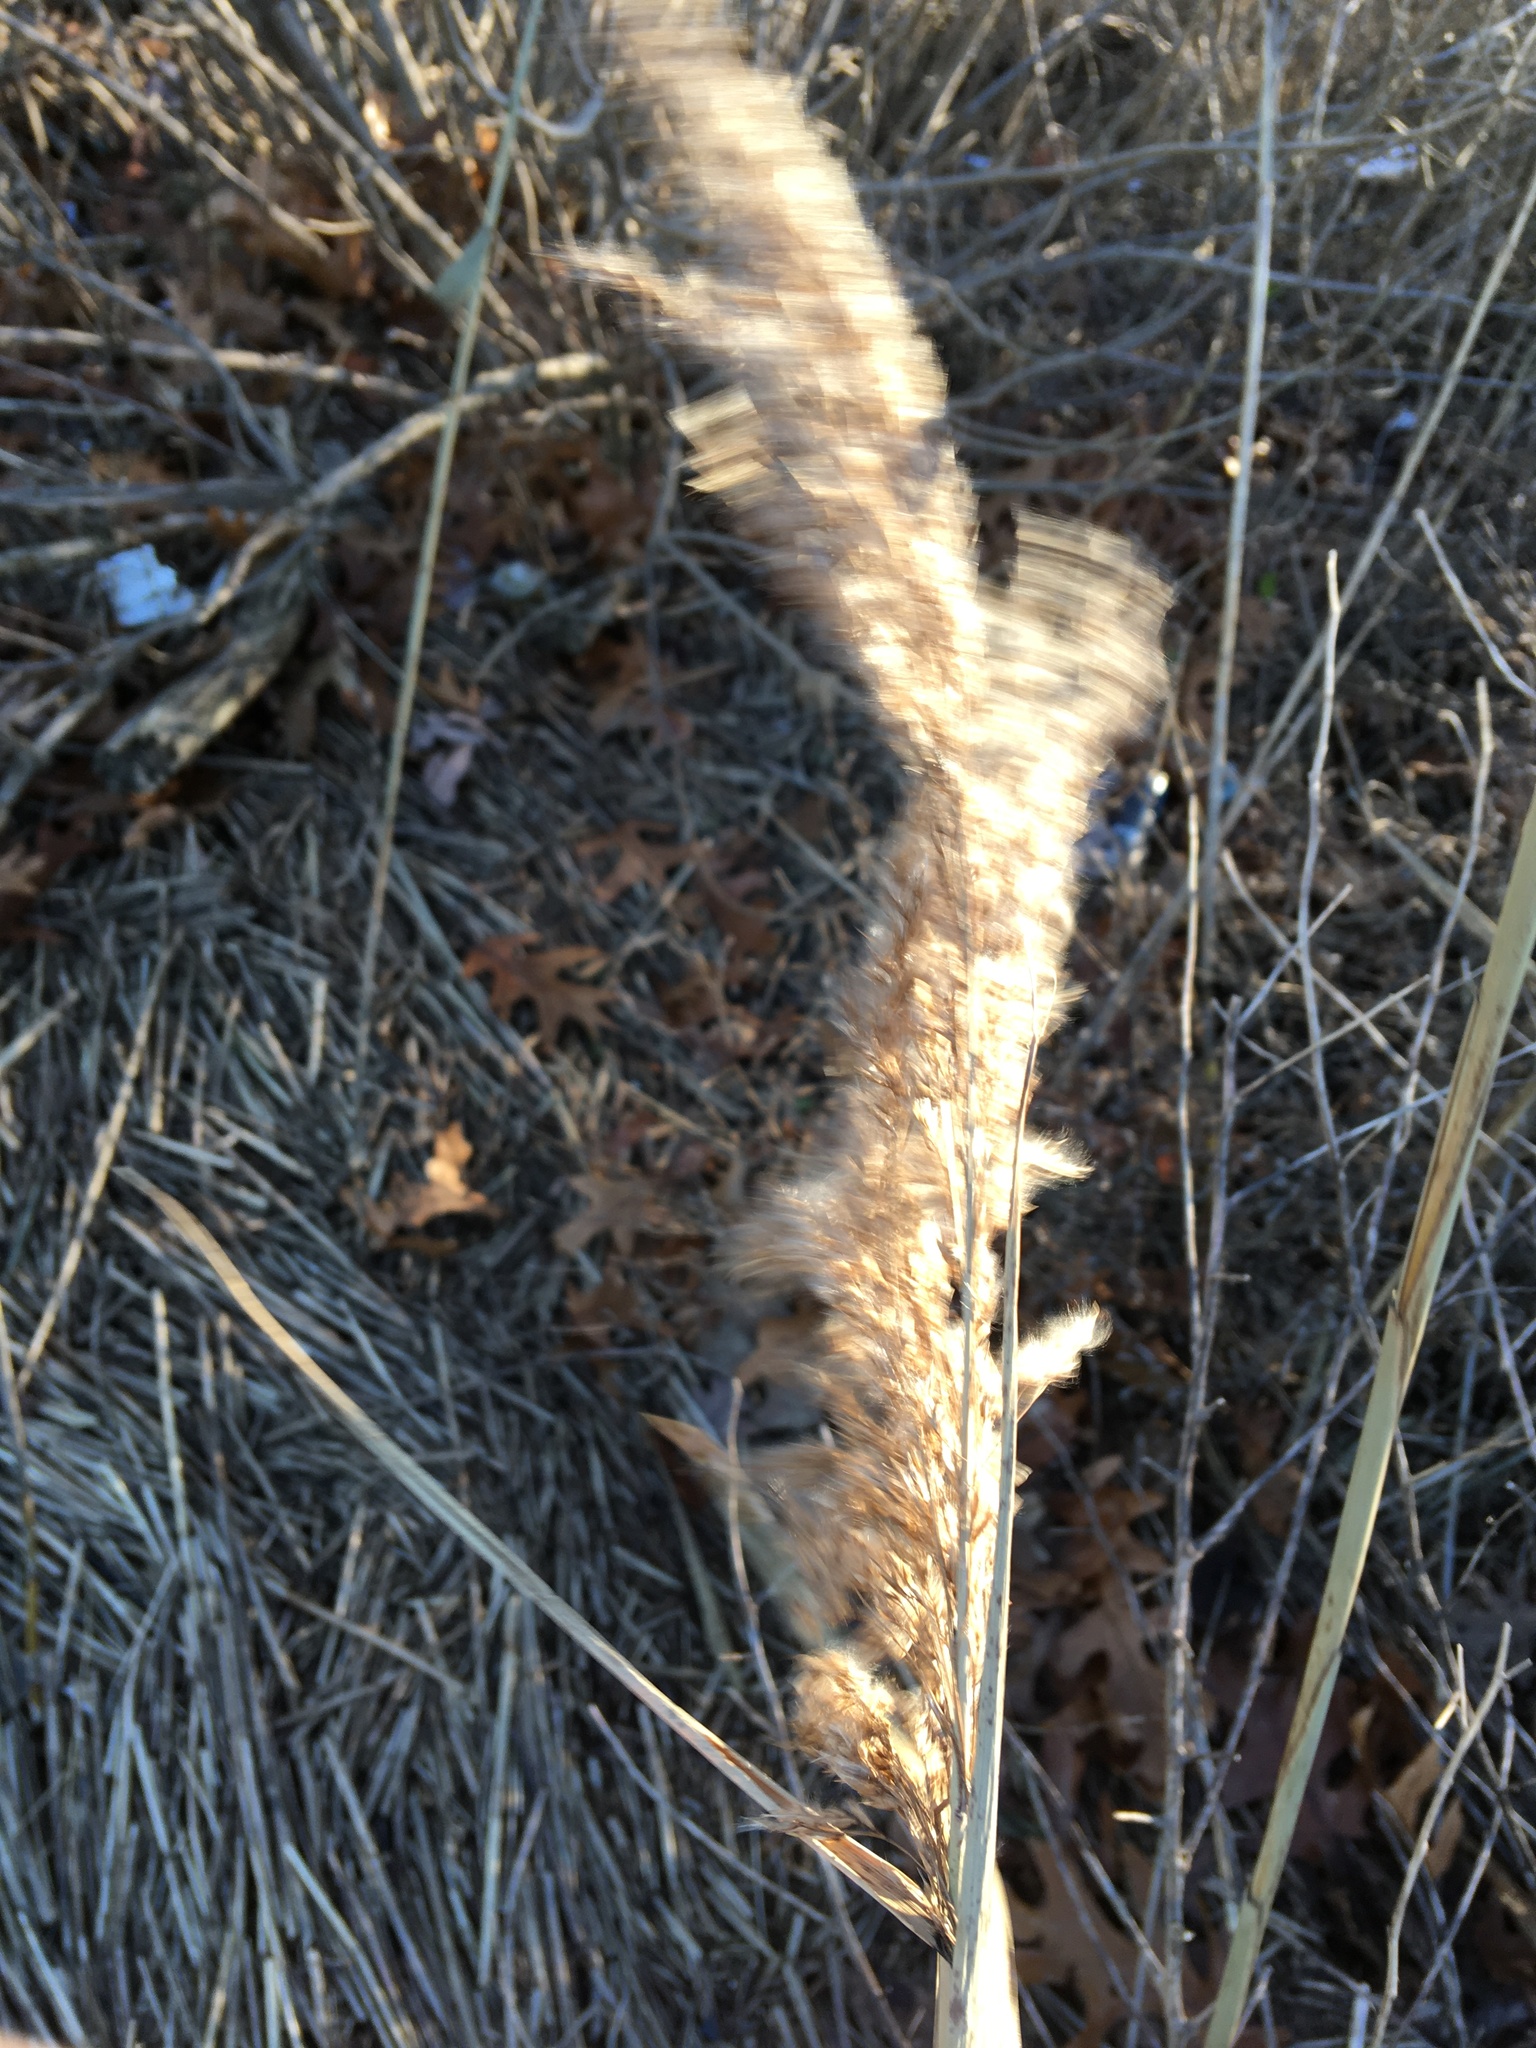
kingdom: Plantae
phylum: Tracheophyta
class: Liliopsida
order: Poales
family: Poaceae
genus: Phragmites
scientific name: Phragmites australis
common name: Common reed
